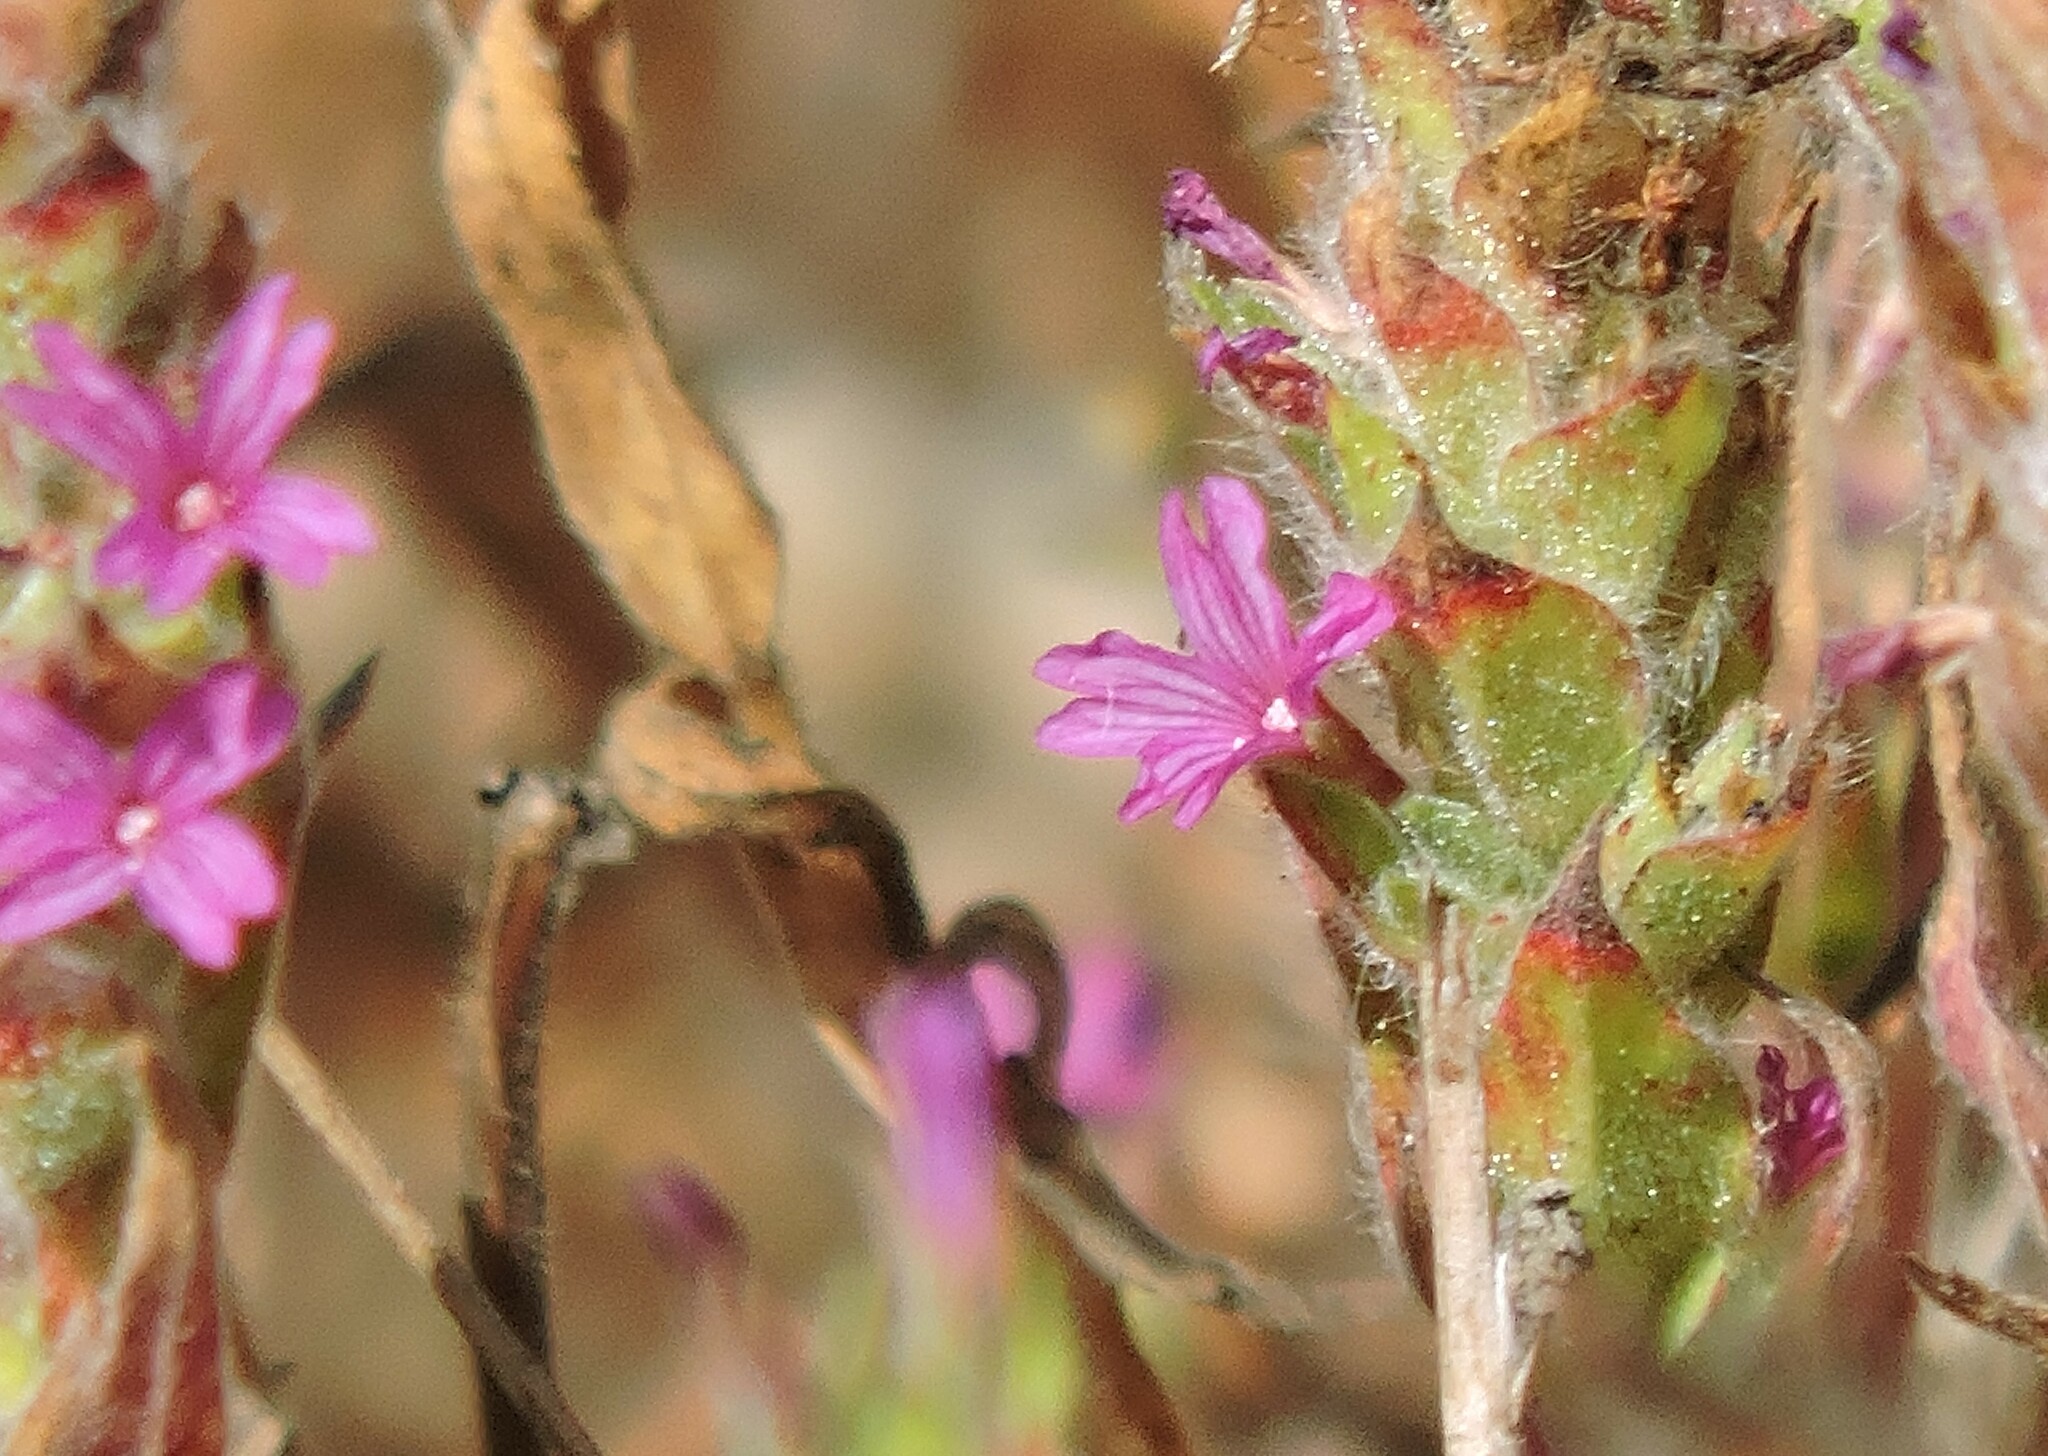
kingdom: Plantae
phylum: Tracheophyta
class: Magnoliopsida
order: Myrtales
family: Onagraceae
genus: Epilobium
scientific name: Epilobium densiflorum
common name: Dense spike-primrose
